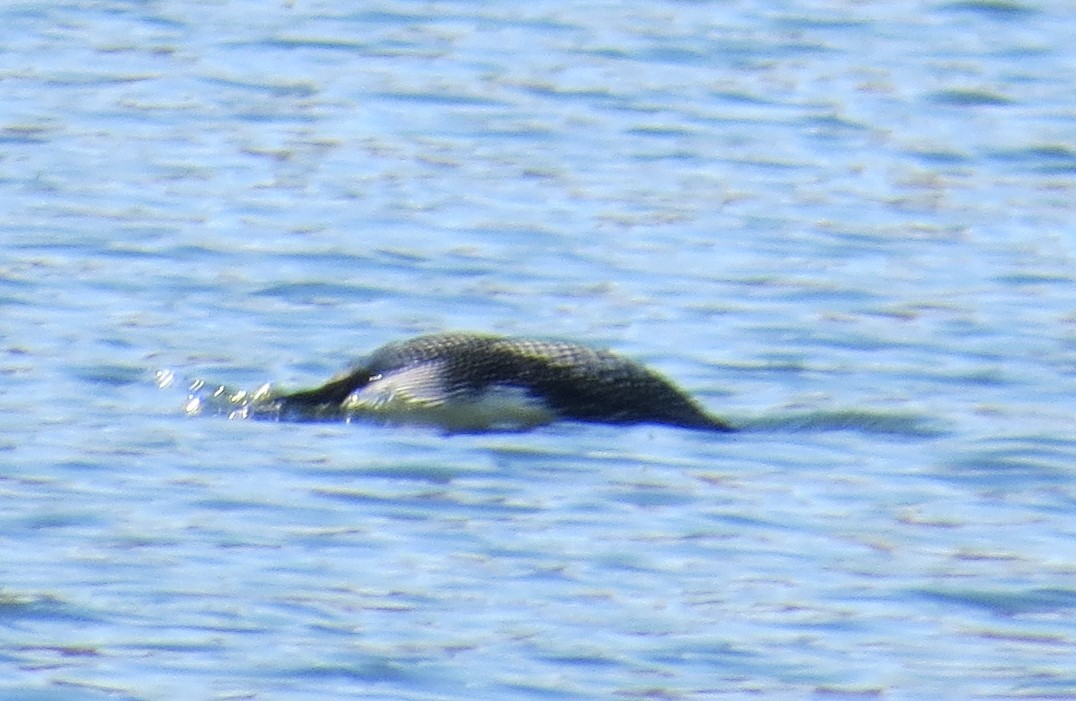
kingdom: Animalia
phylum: Chordata
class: Aves
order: Gaviiformes
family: Gaviidae
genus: Gavia
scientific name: Gavia immer
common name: Common loon
